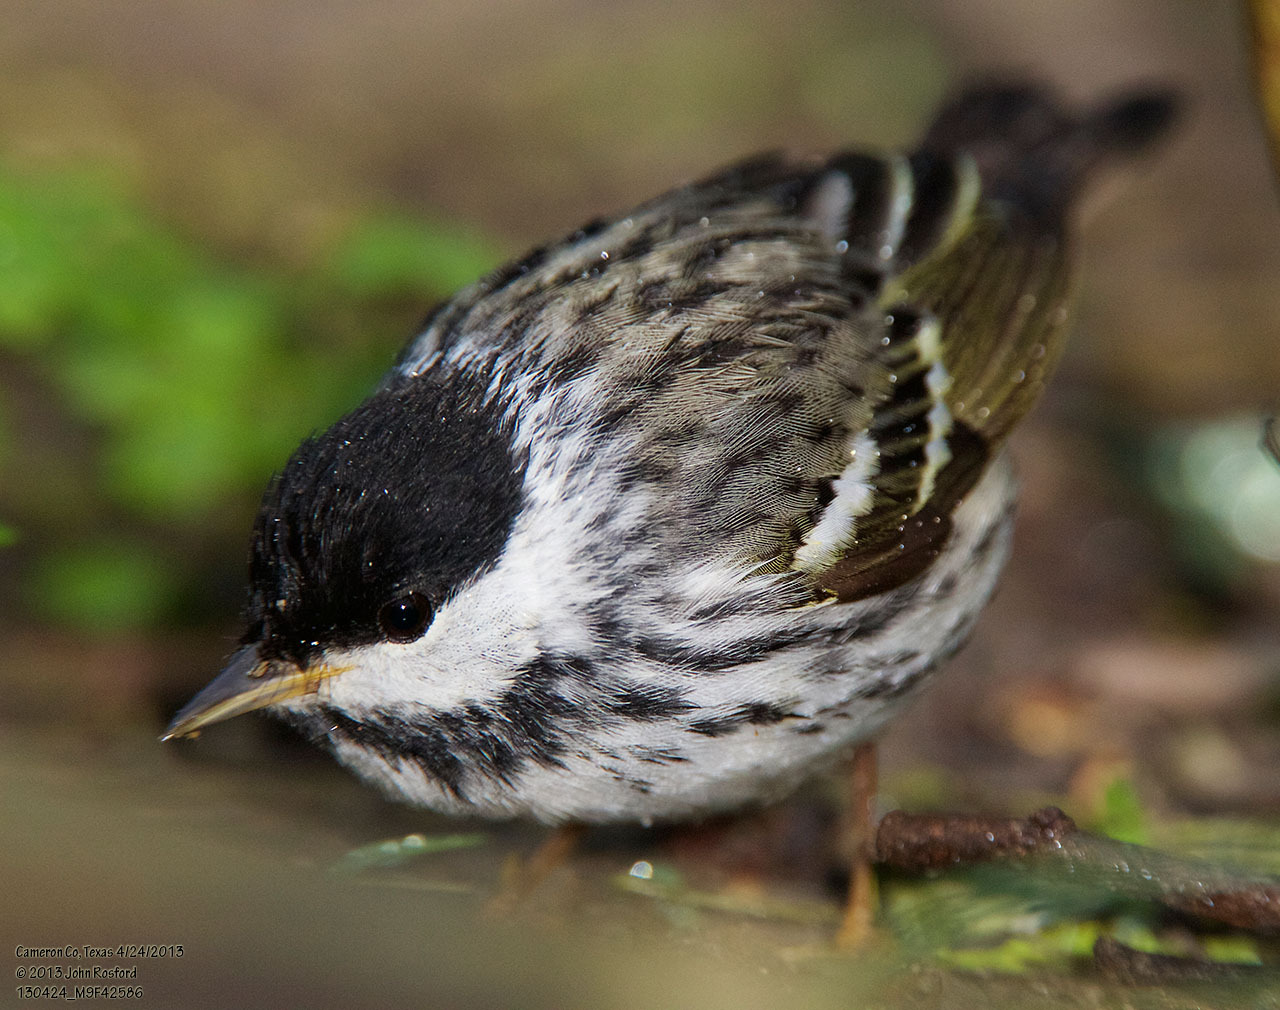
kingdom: Animalia
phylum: Chordata
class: Aves
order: Passeriformes
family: Parulidae
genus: Setophaga
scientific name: Setophaga striata
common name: Blackpoll warbler
